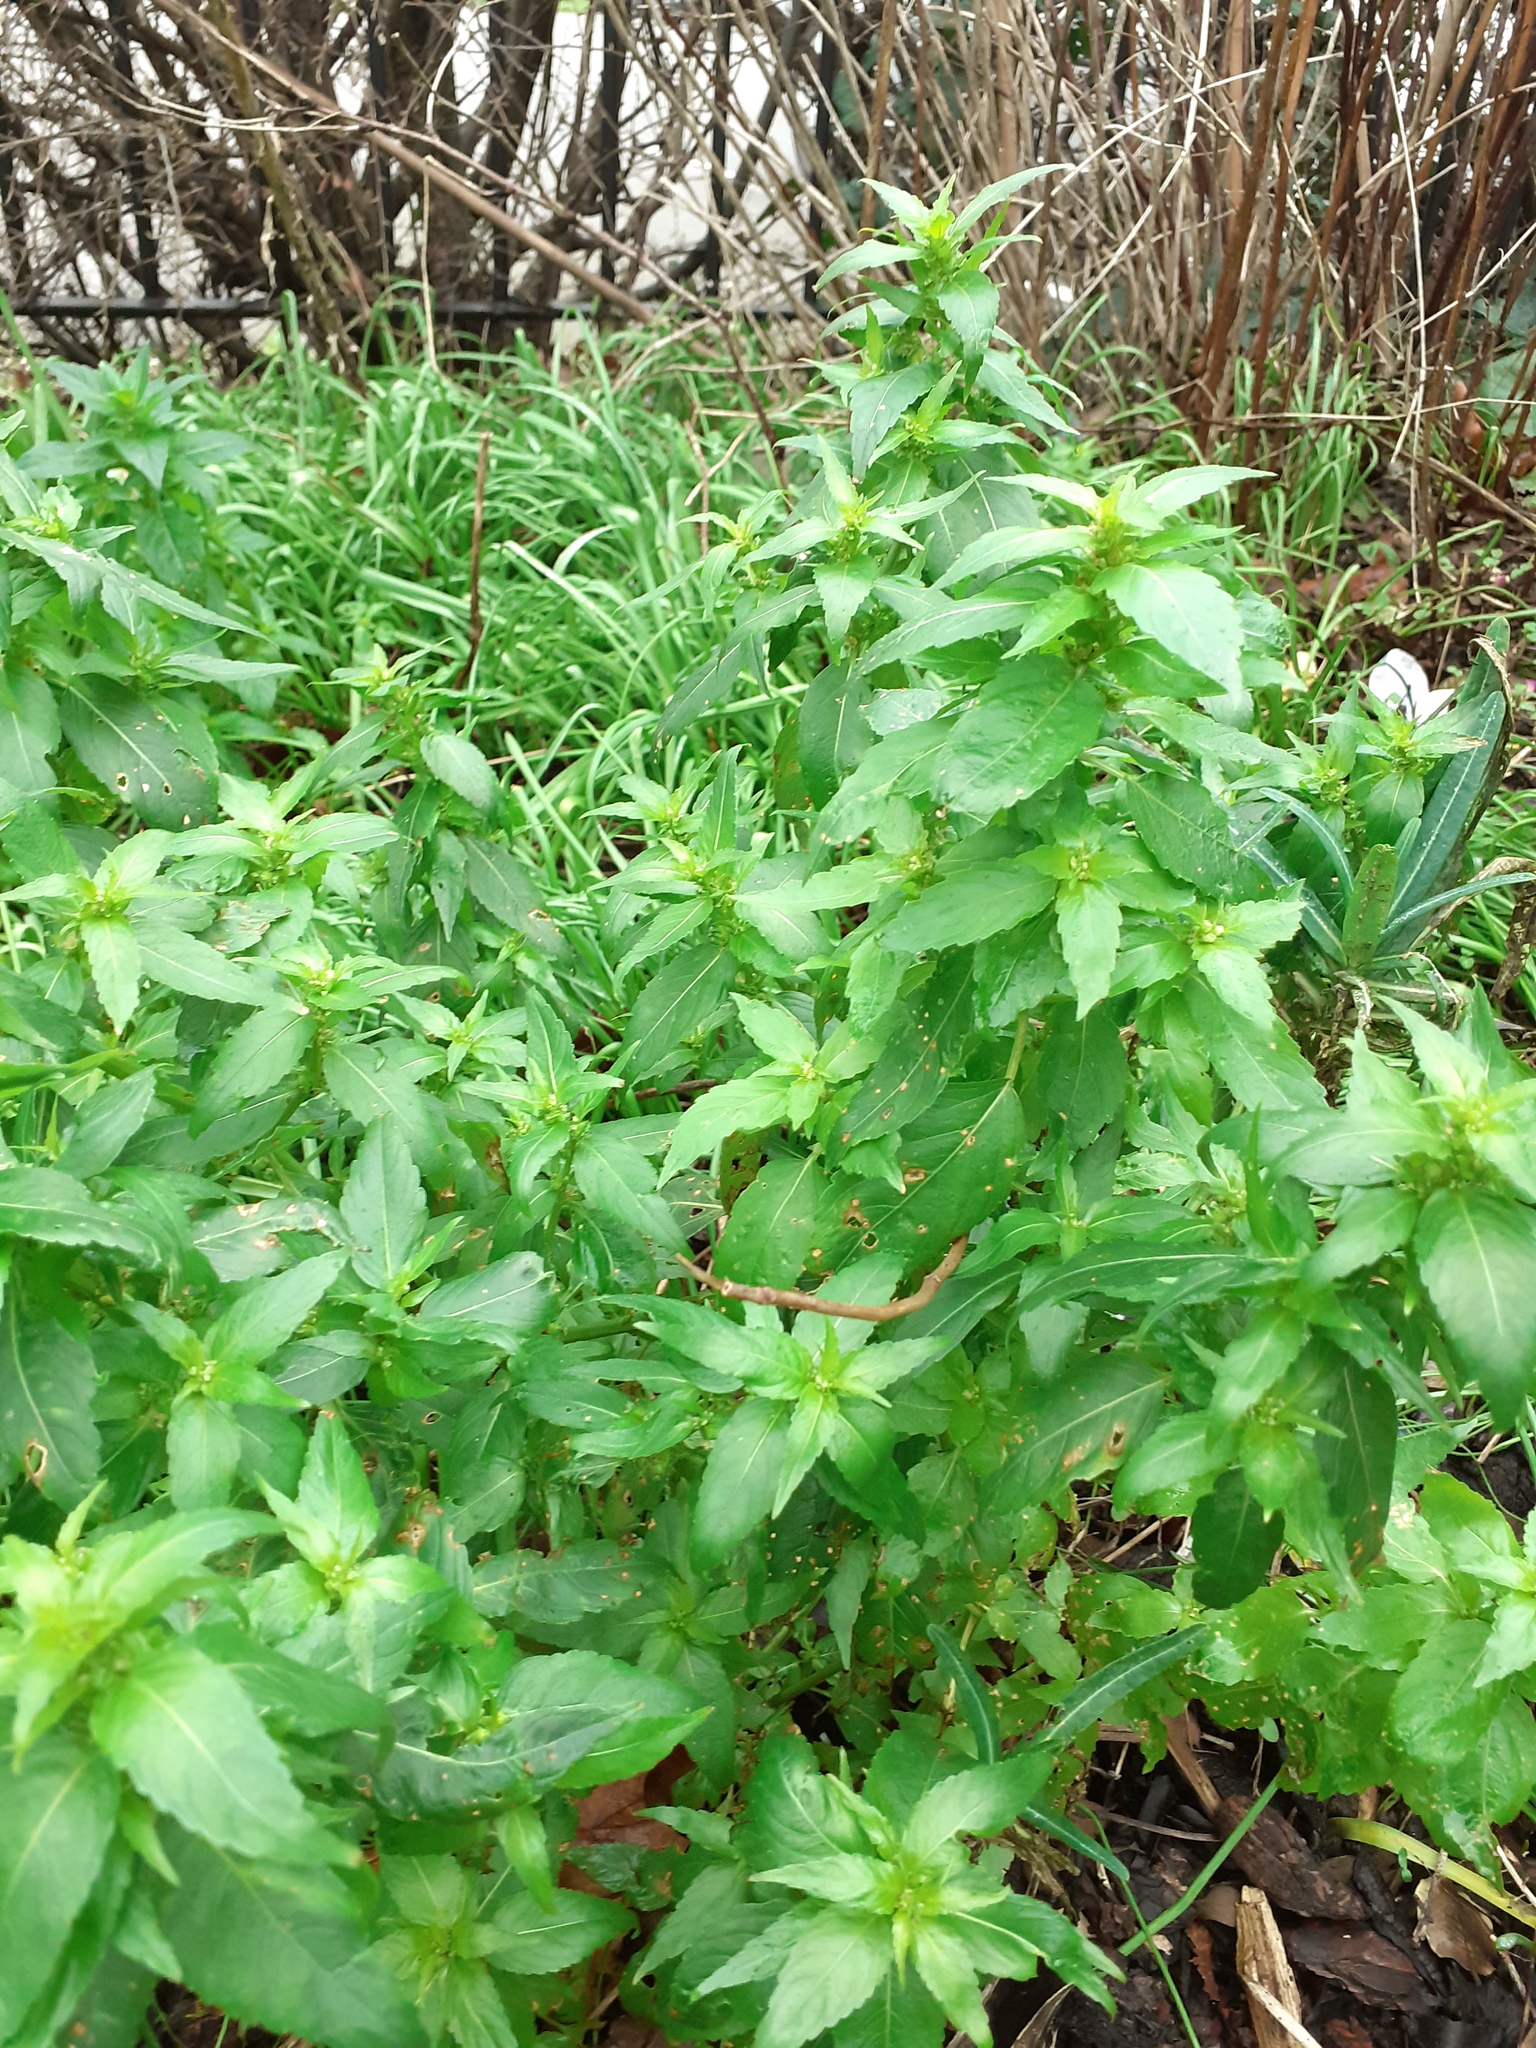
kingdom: Plantae
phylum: Tracheophyta
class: Magnoliopsida
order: Malpighiales
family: Euphorbiaceae
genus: Mercurialis
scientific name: Mercurialis annua
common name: Annual mercury
